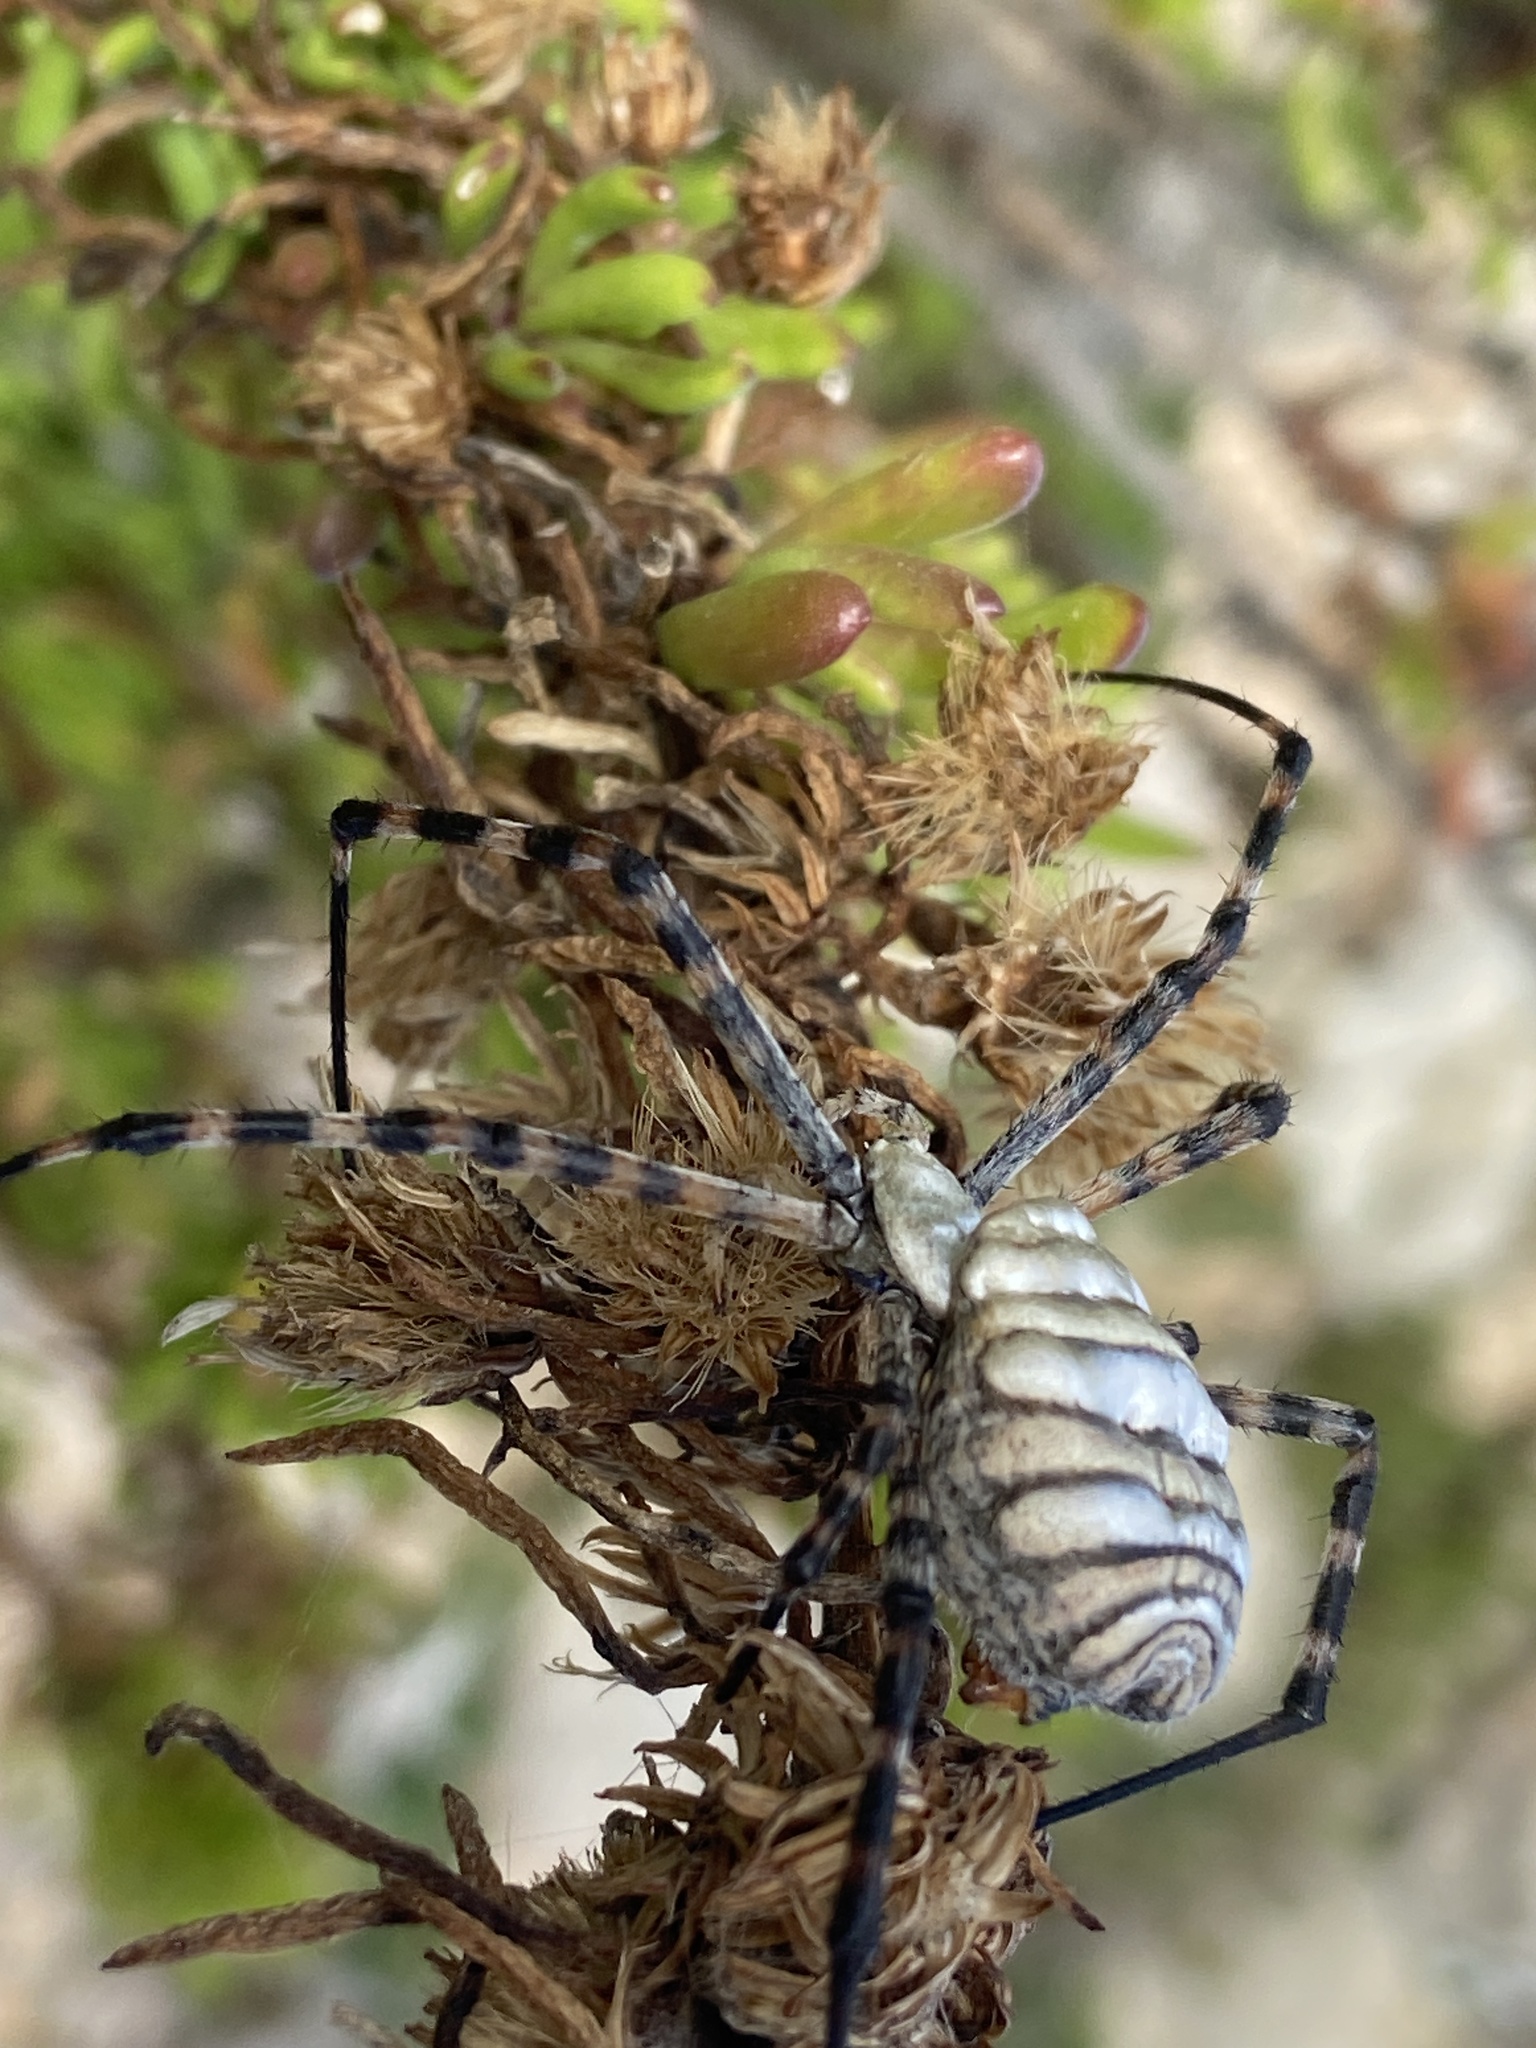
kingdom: Animalia
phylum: Arthropoda
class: Arachnida
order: Araneae
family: Araneidae
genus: Argiope
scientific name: Argiope trifasciata
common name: Banded garden spider
